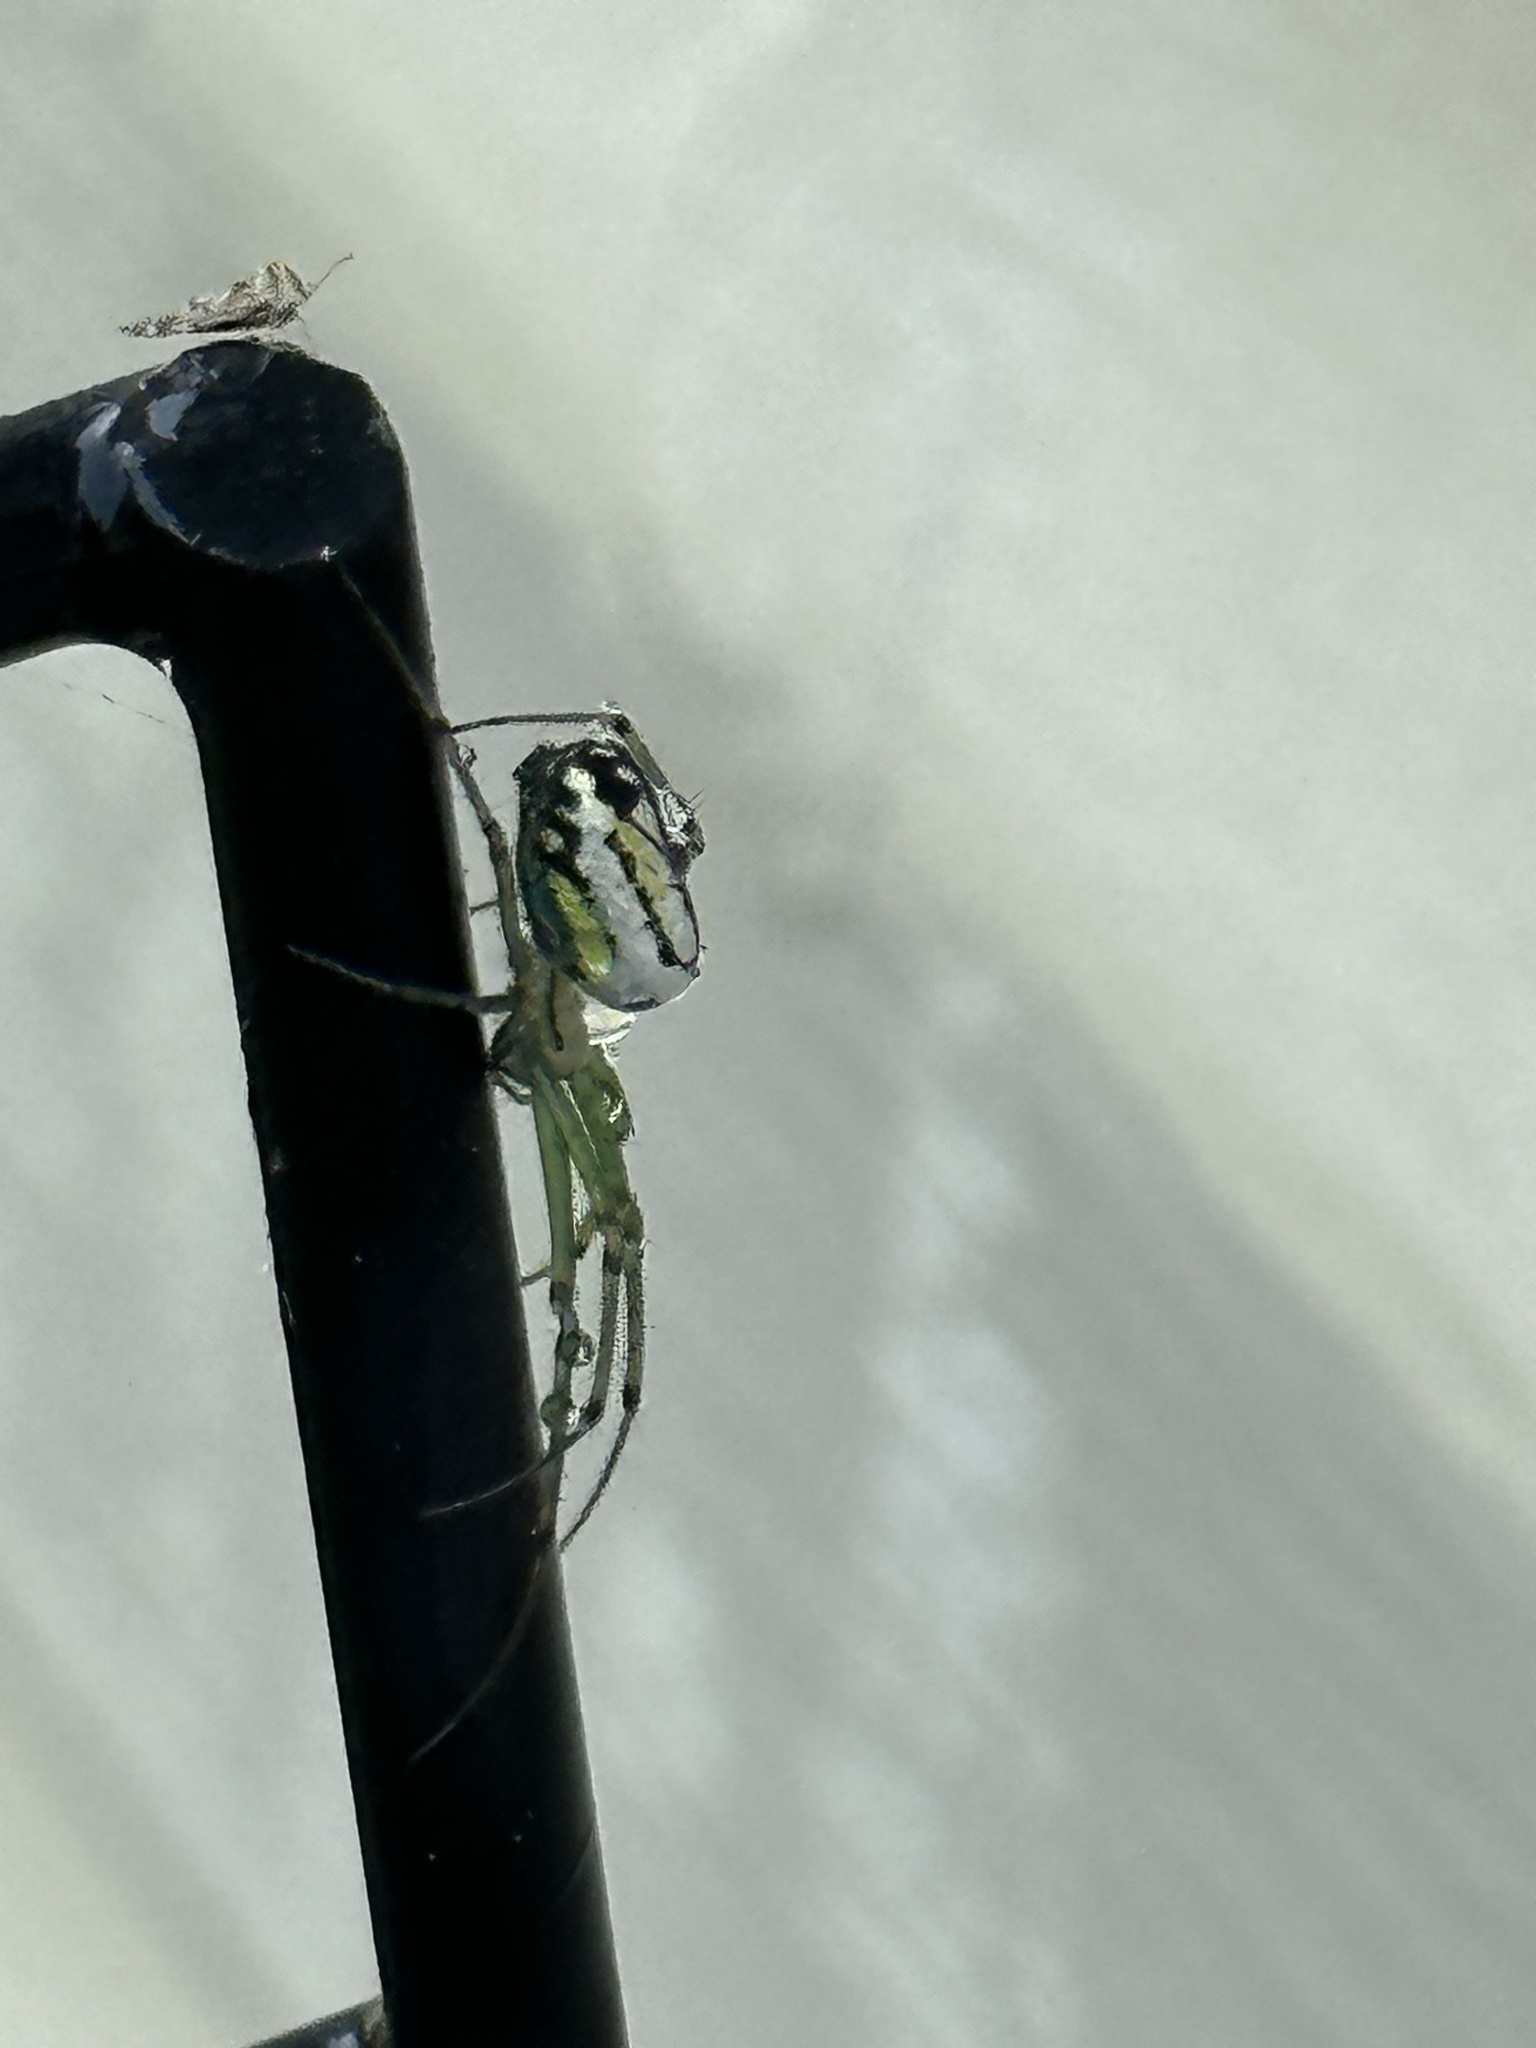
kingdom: Animalia
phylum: Arthropoda
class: Arachnida
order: Araneae
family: Tetragnathidae
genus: Leucauge
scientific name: Leucauge venusta
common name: Longjawed orb weavers
